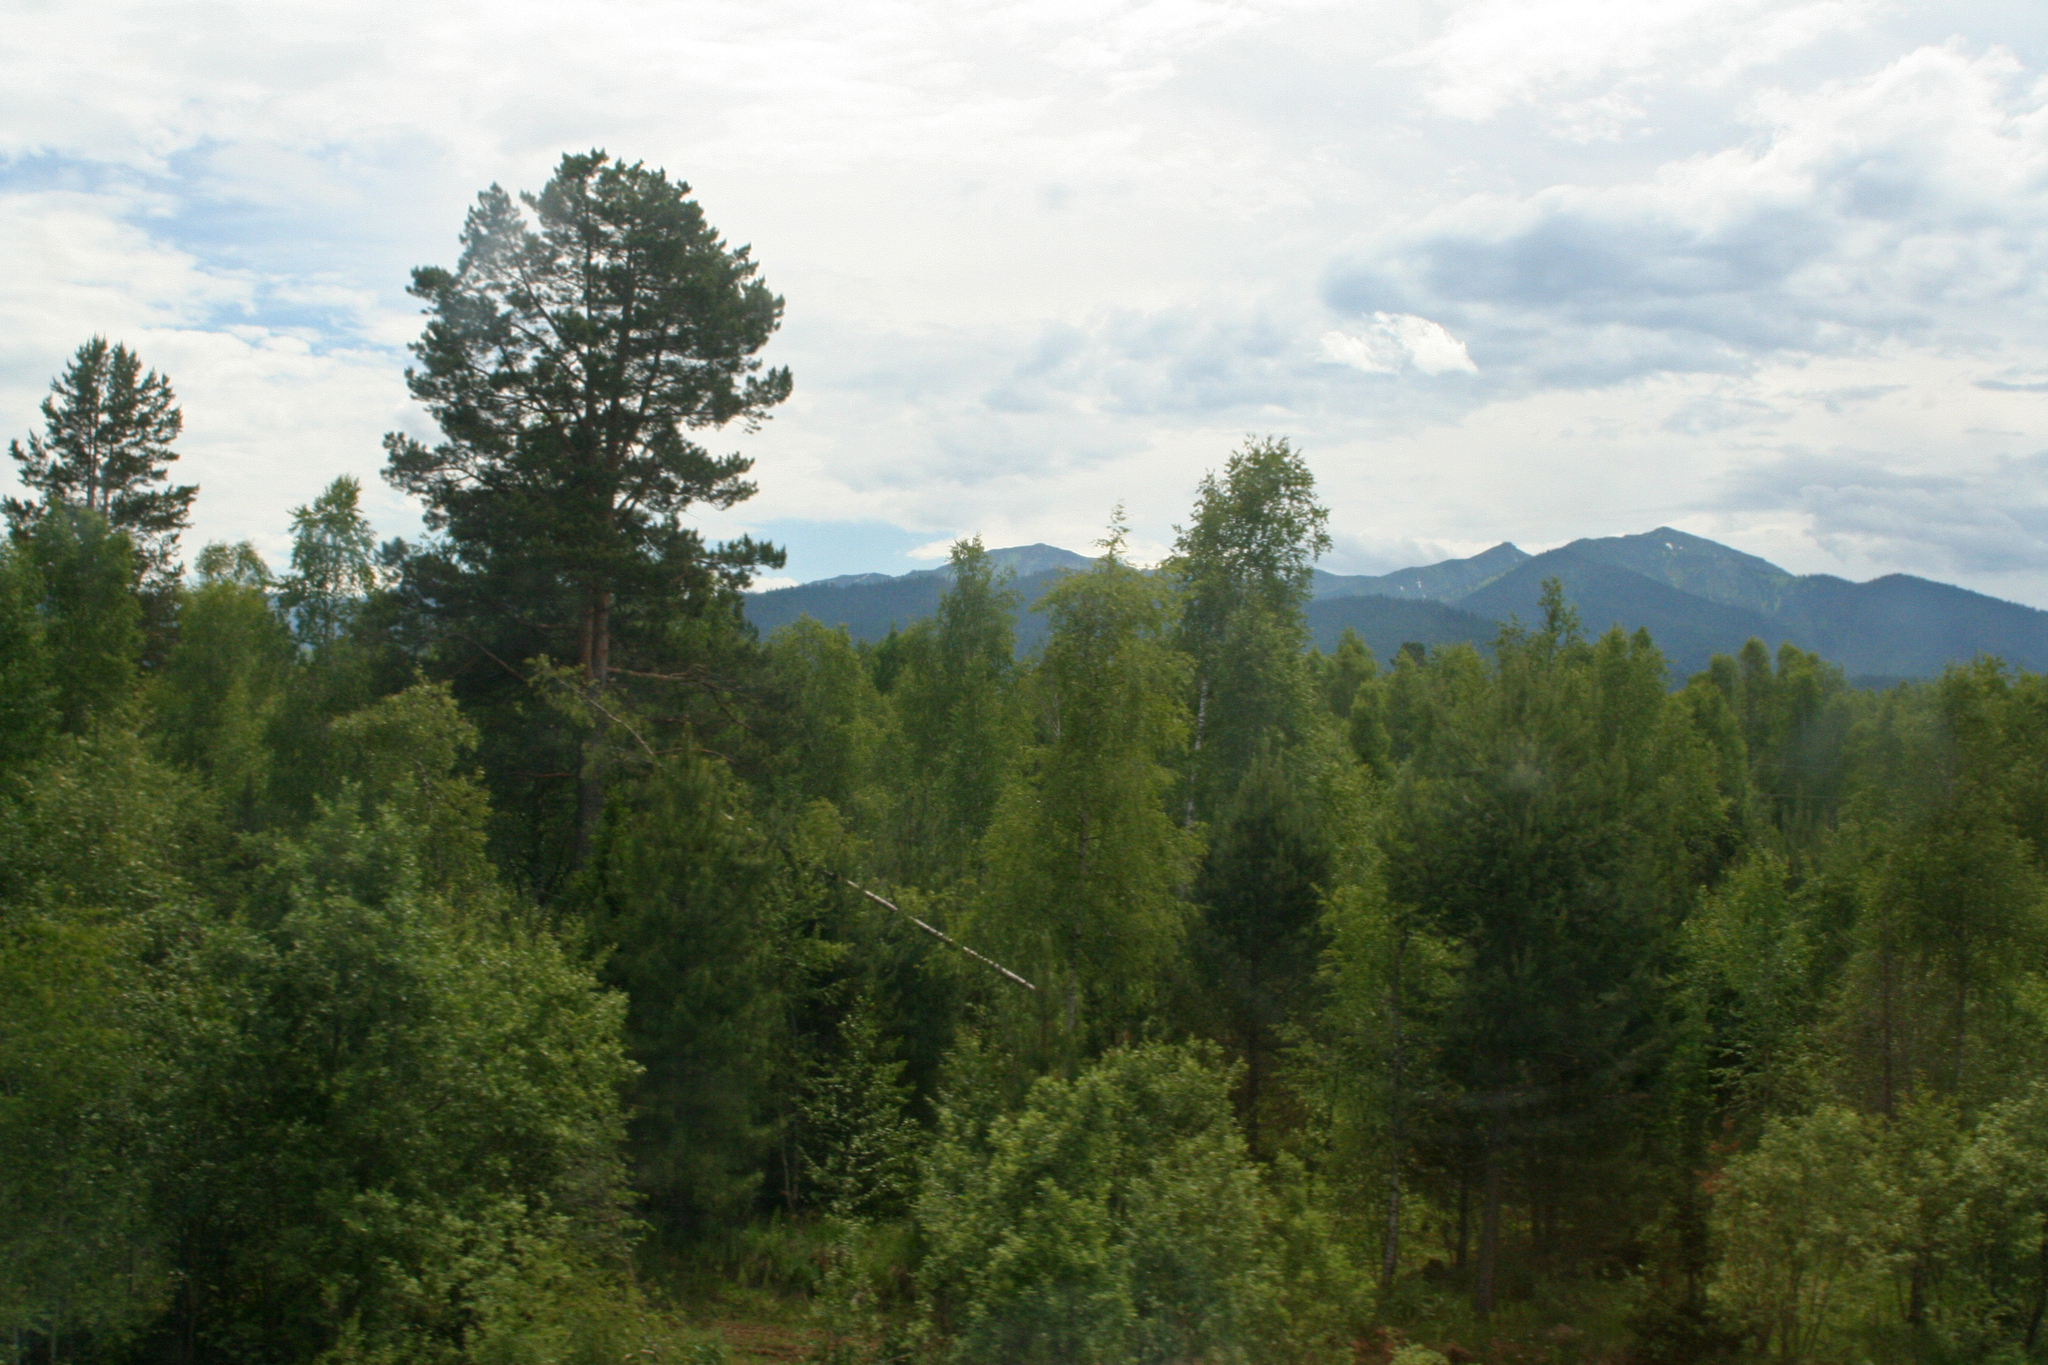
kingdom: Plantae
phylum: Tracheophyta
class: Pinopsida
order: Pinales
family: Pinaceae
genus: Pinus
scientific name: Pinus sylvestris
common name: Scots pine
